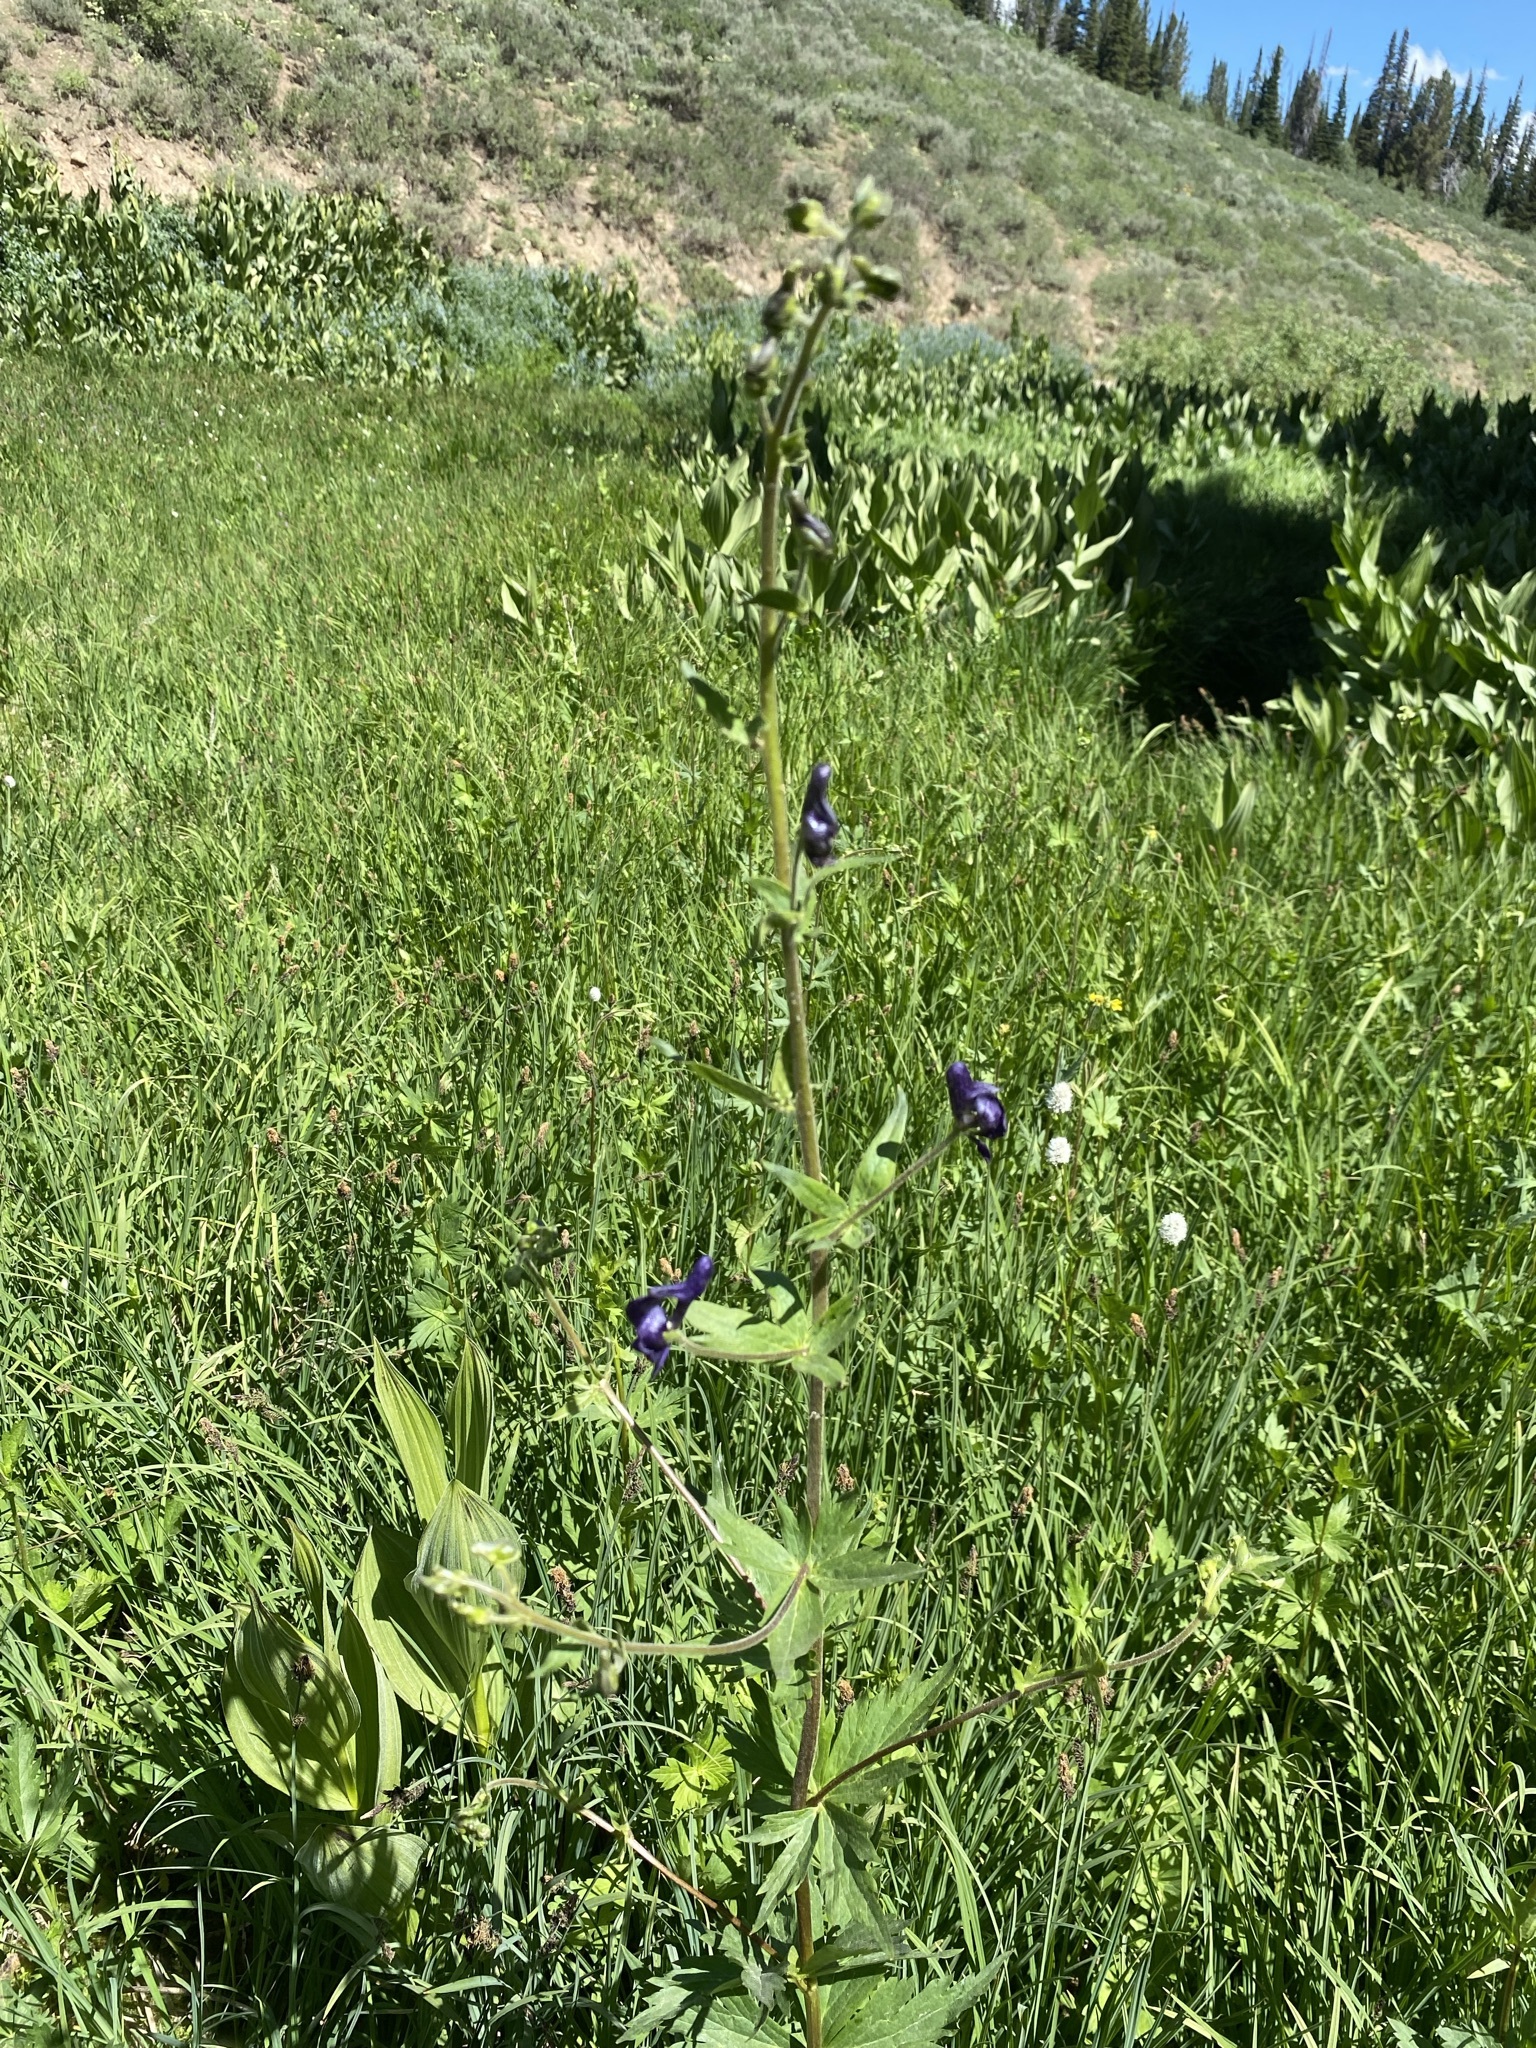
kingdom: Plantae
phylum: Tracheophyta
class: Magnoliopsida
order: Ranunculales
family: Ranunculaceae
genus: Aconitum
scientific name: Aconitum columbianum
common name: Columbia aconite
